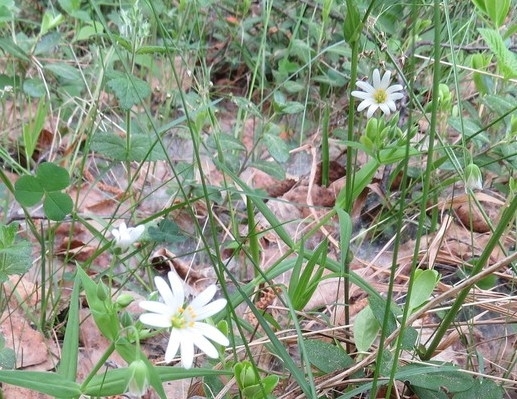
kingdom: Plantae
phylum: Tracheophyta
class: Magnoliopsida
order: Caryophyllales
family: Caryophyllaceae
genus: Rabelera
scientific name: Rabelera holostea
